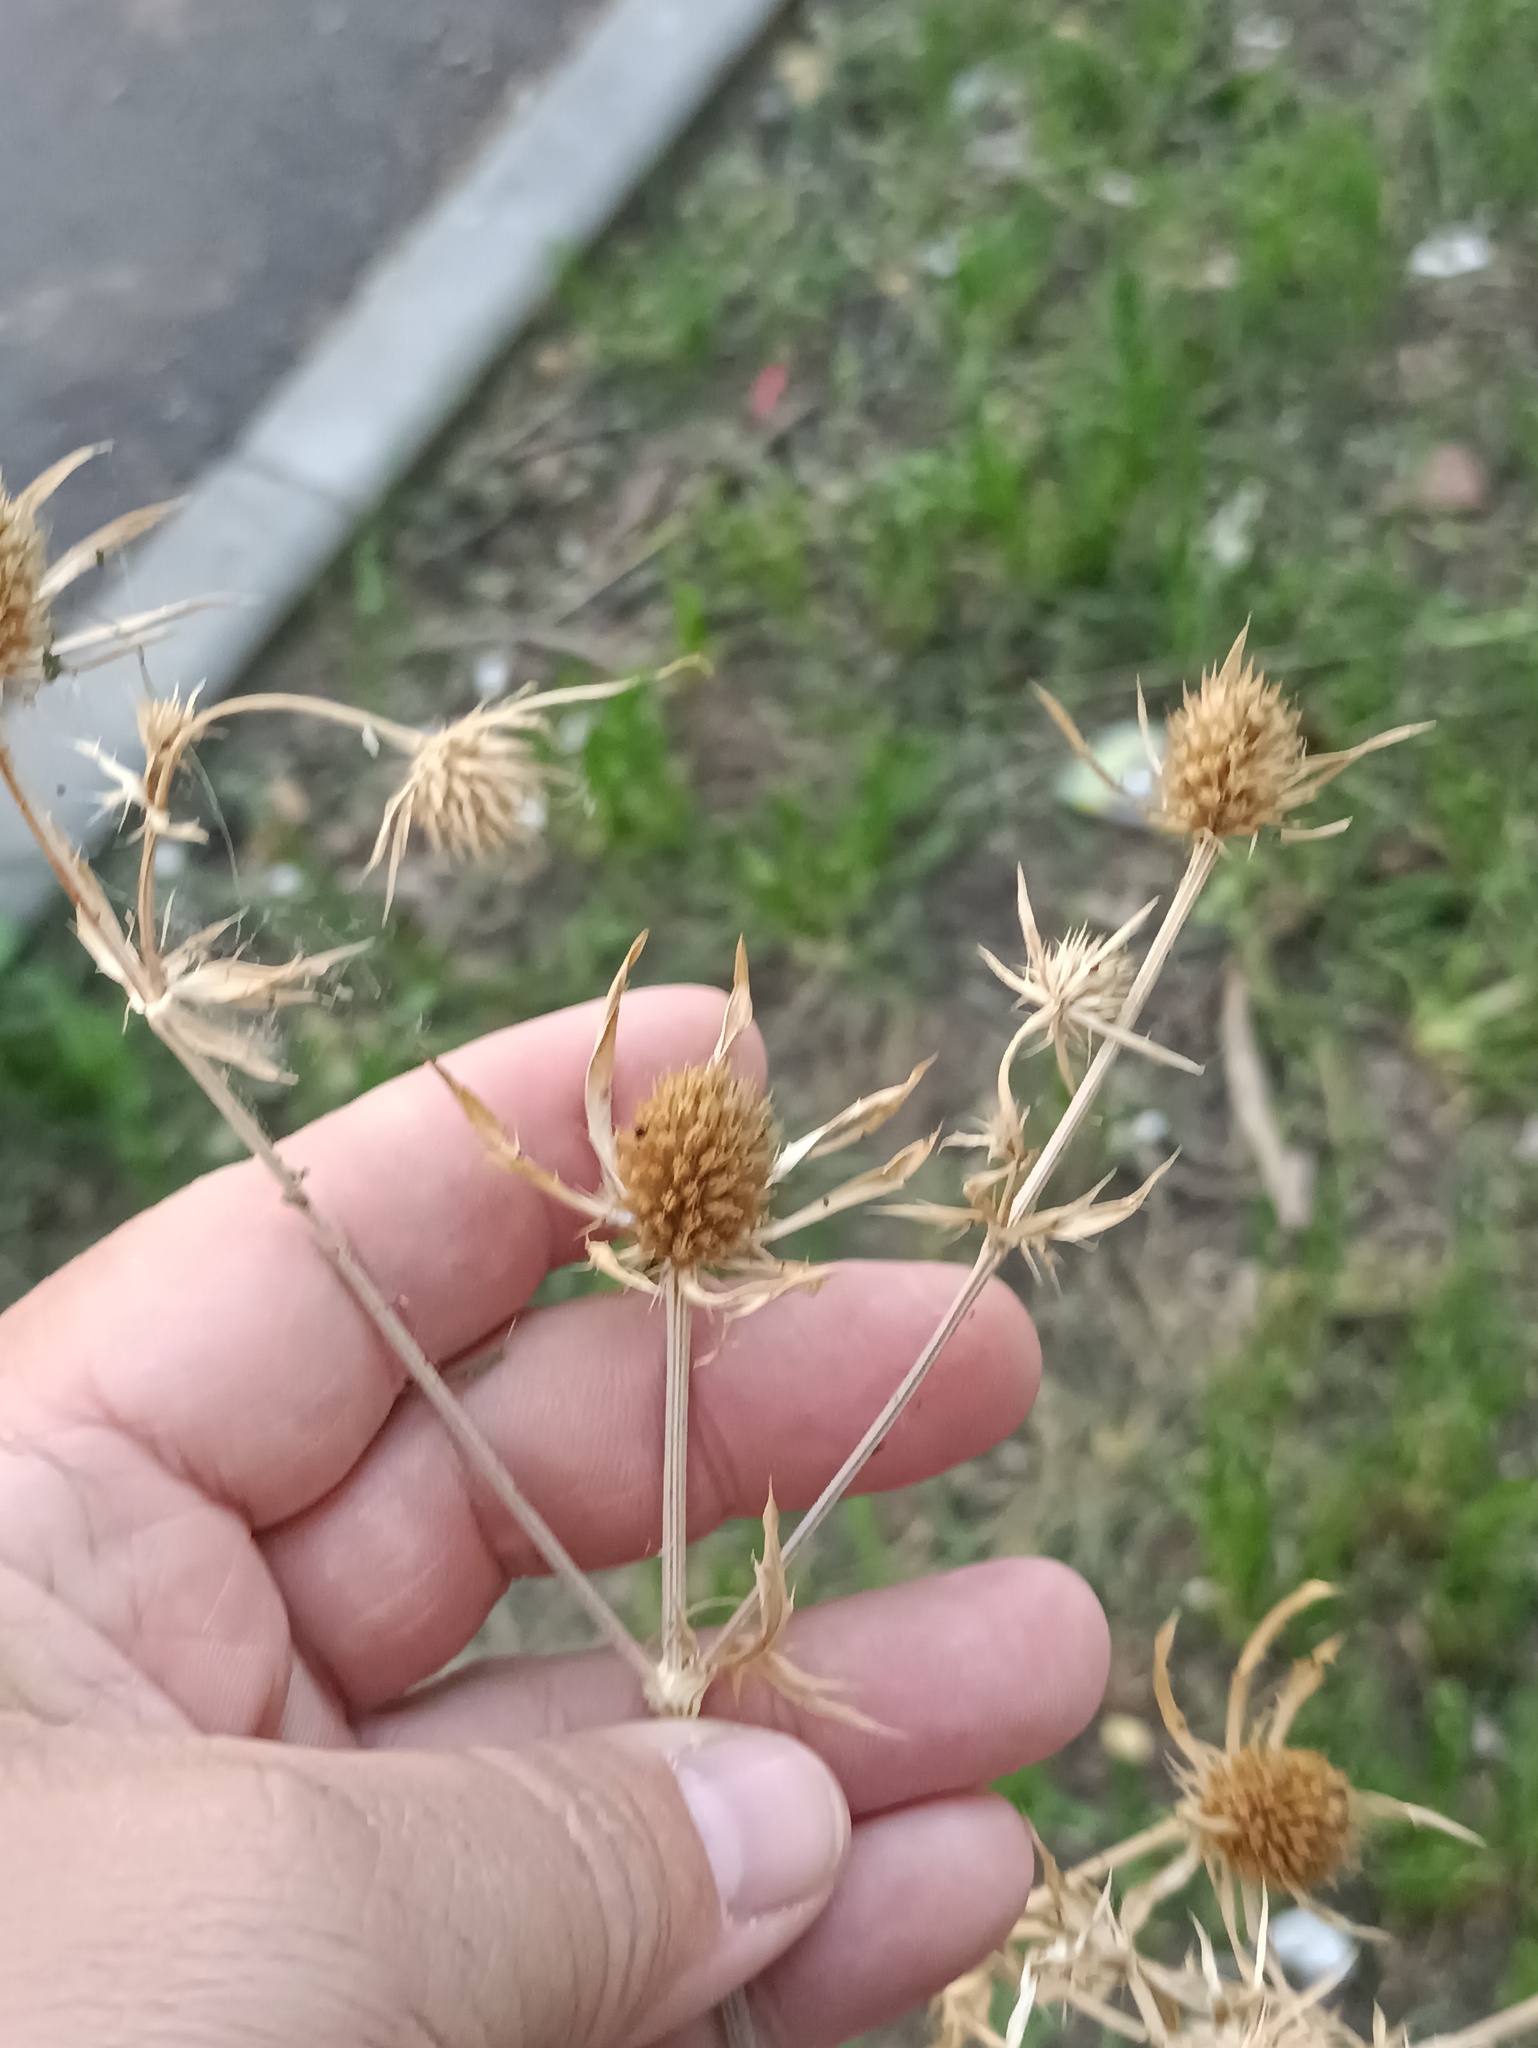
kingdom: Plantae
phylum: Tracheophyta
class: Magnoliopsida
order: Apiales
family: Apiaceae
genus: Eryngium
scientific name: Eryngium planum
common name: Blue eryngo
